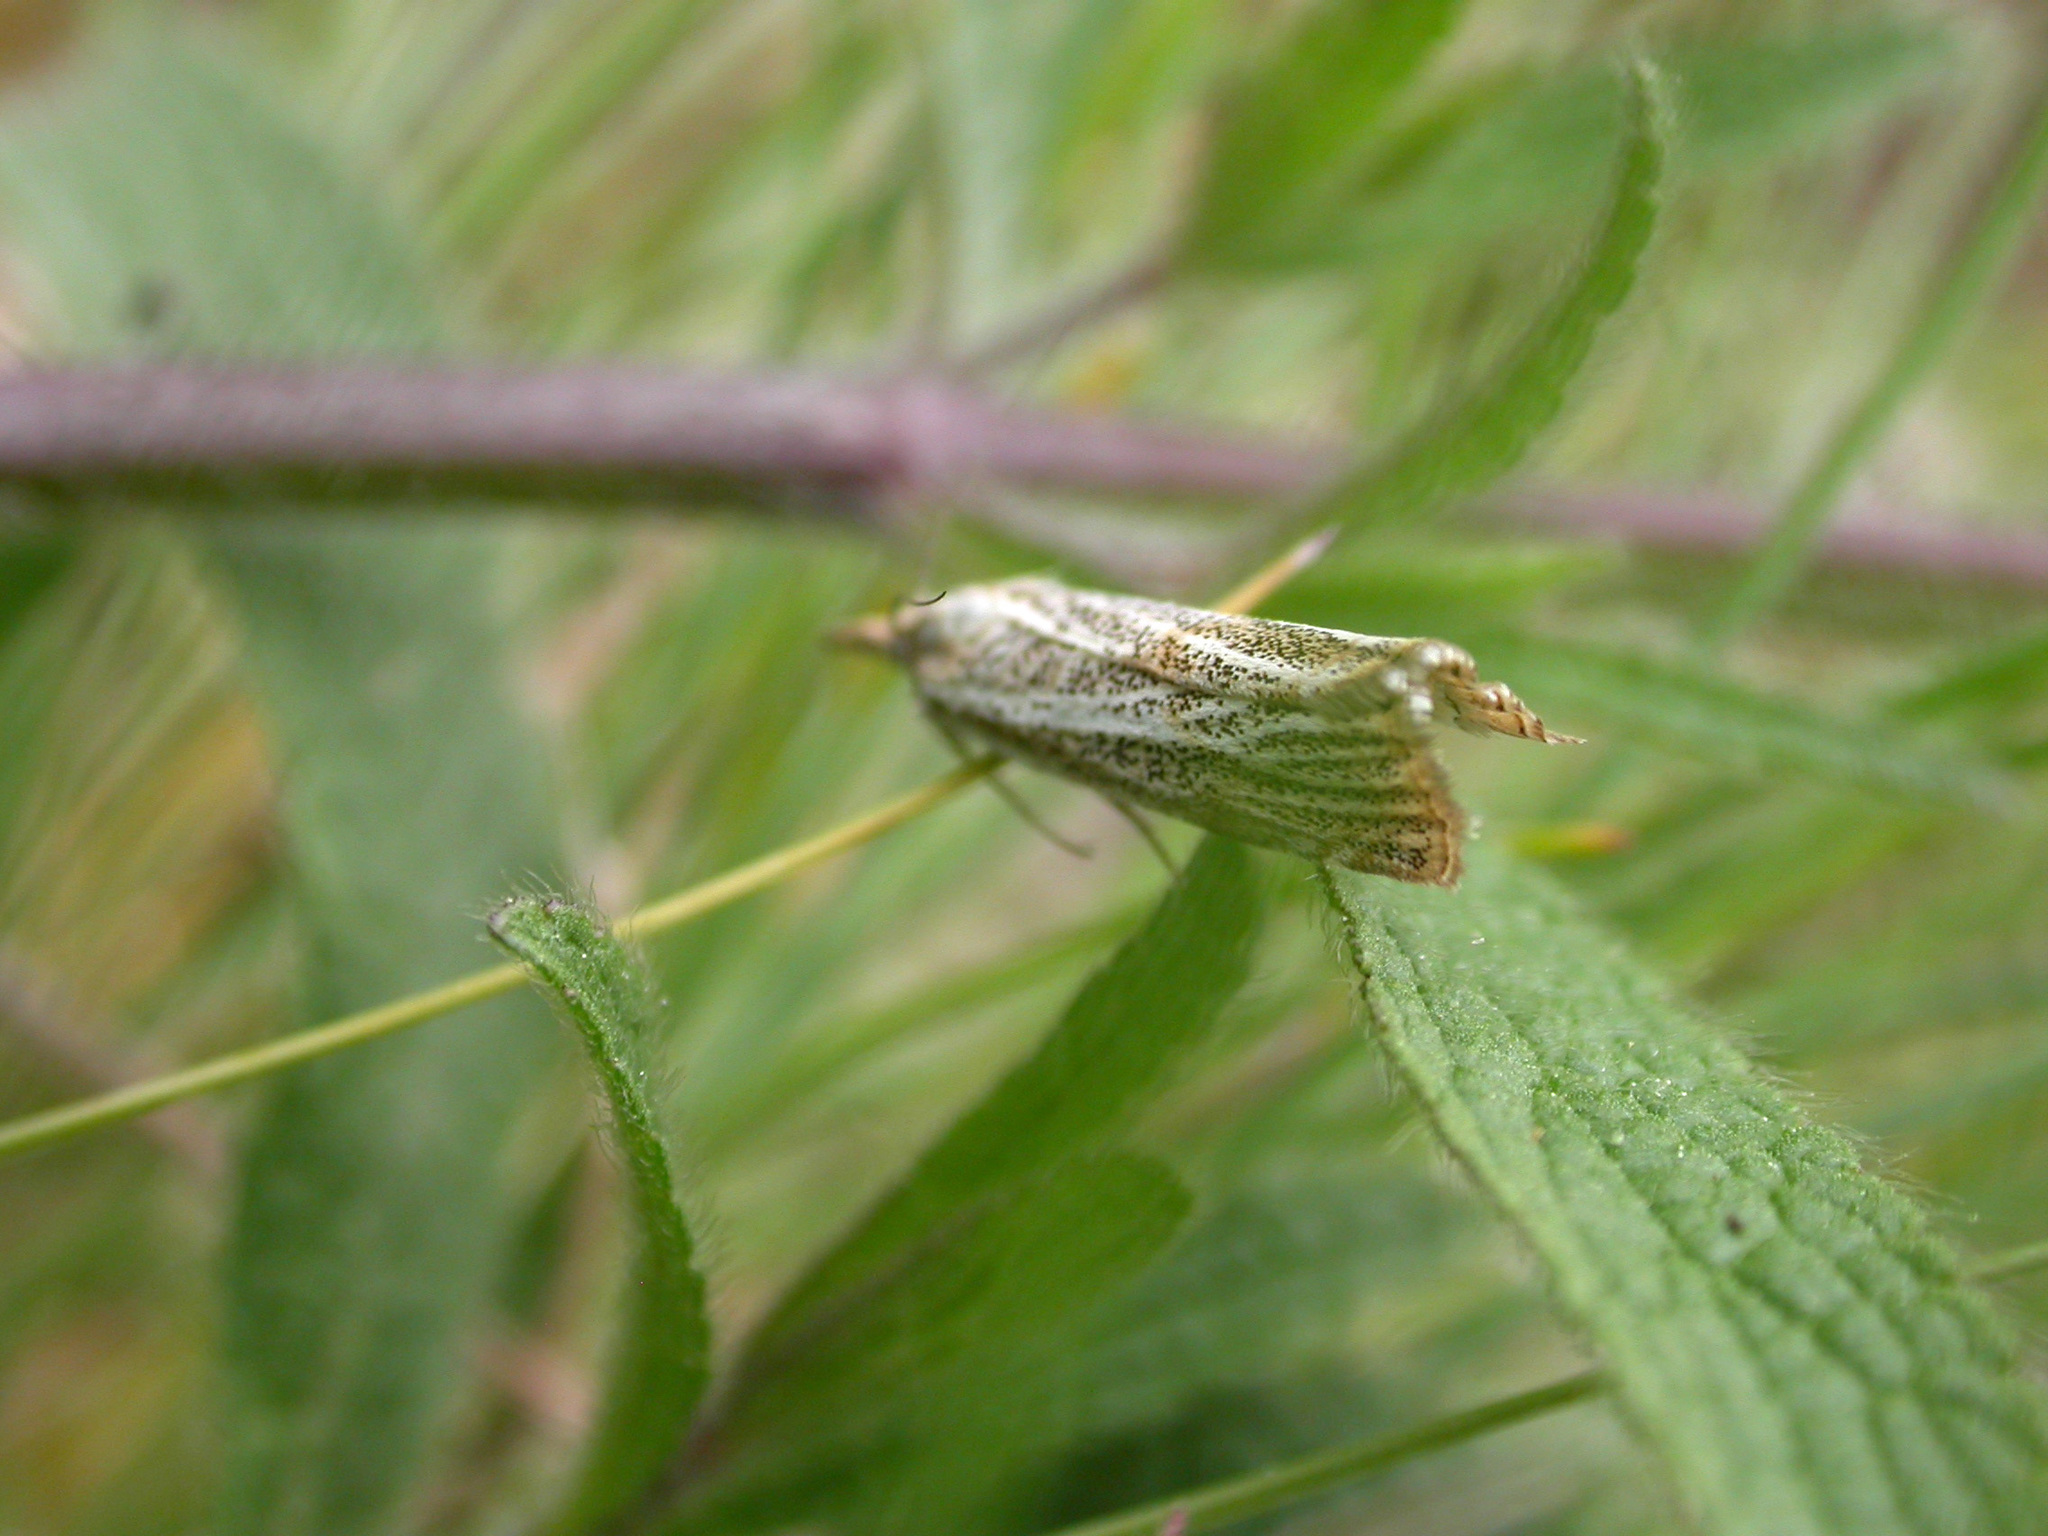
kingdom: Animalia
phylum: Arthropoda
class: Insecta
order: Lepidoptera
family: Crambidae
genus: Thisanotia
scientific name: Thisanotia chrysonuchella
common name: Powdered grass-veneer
